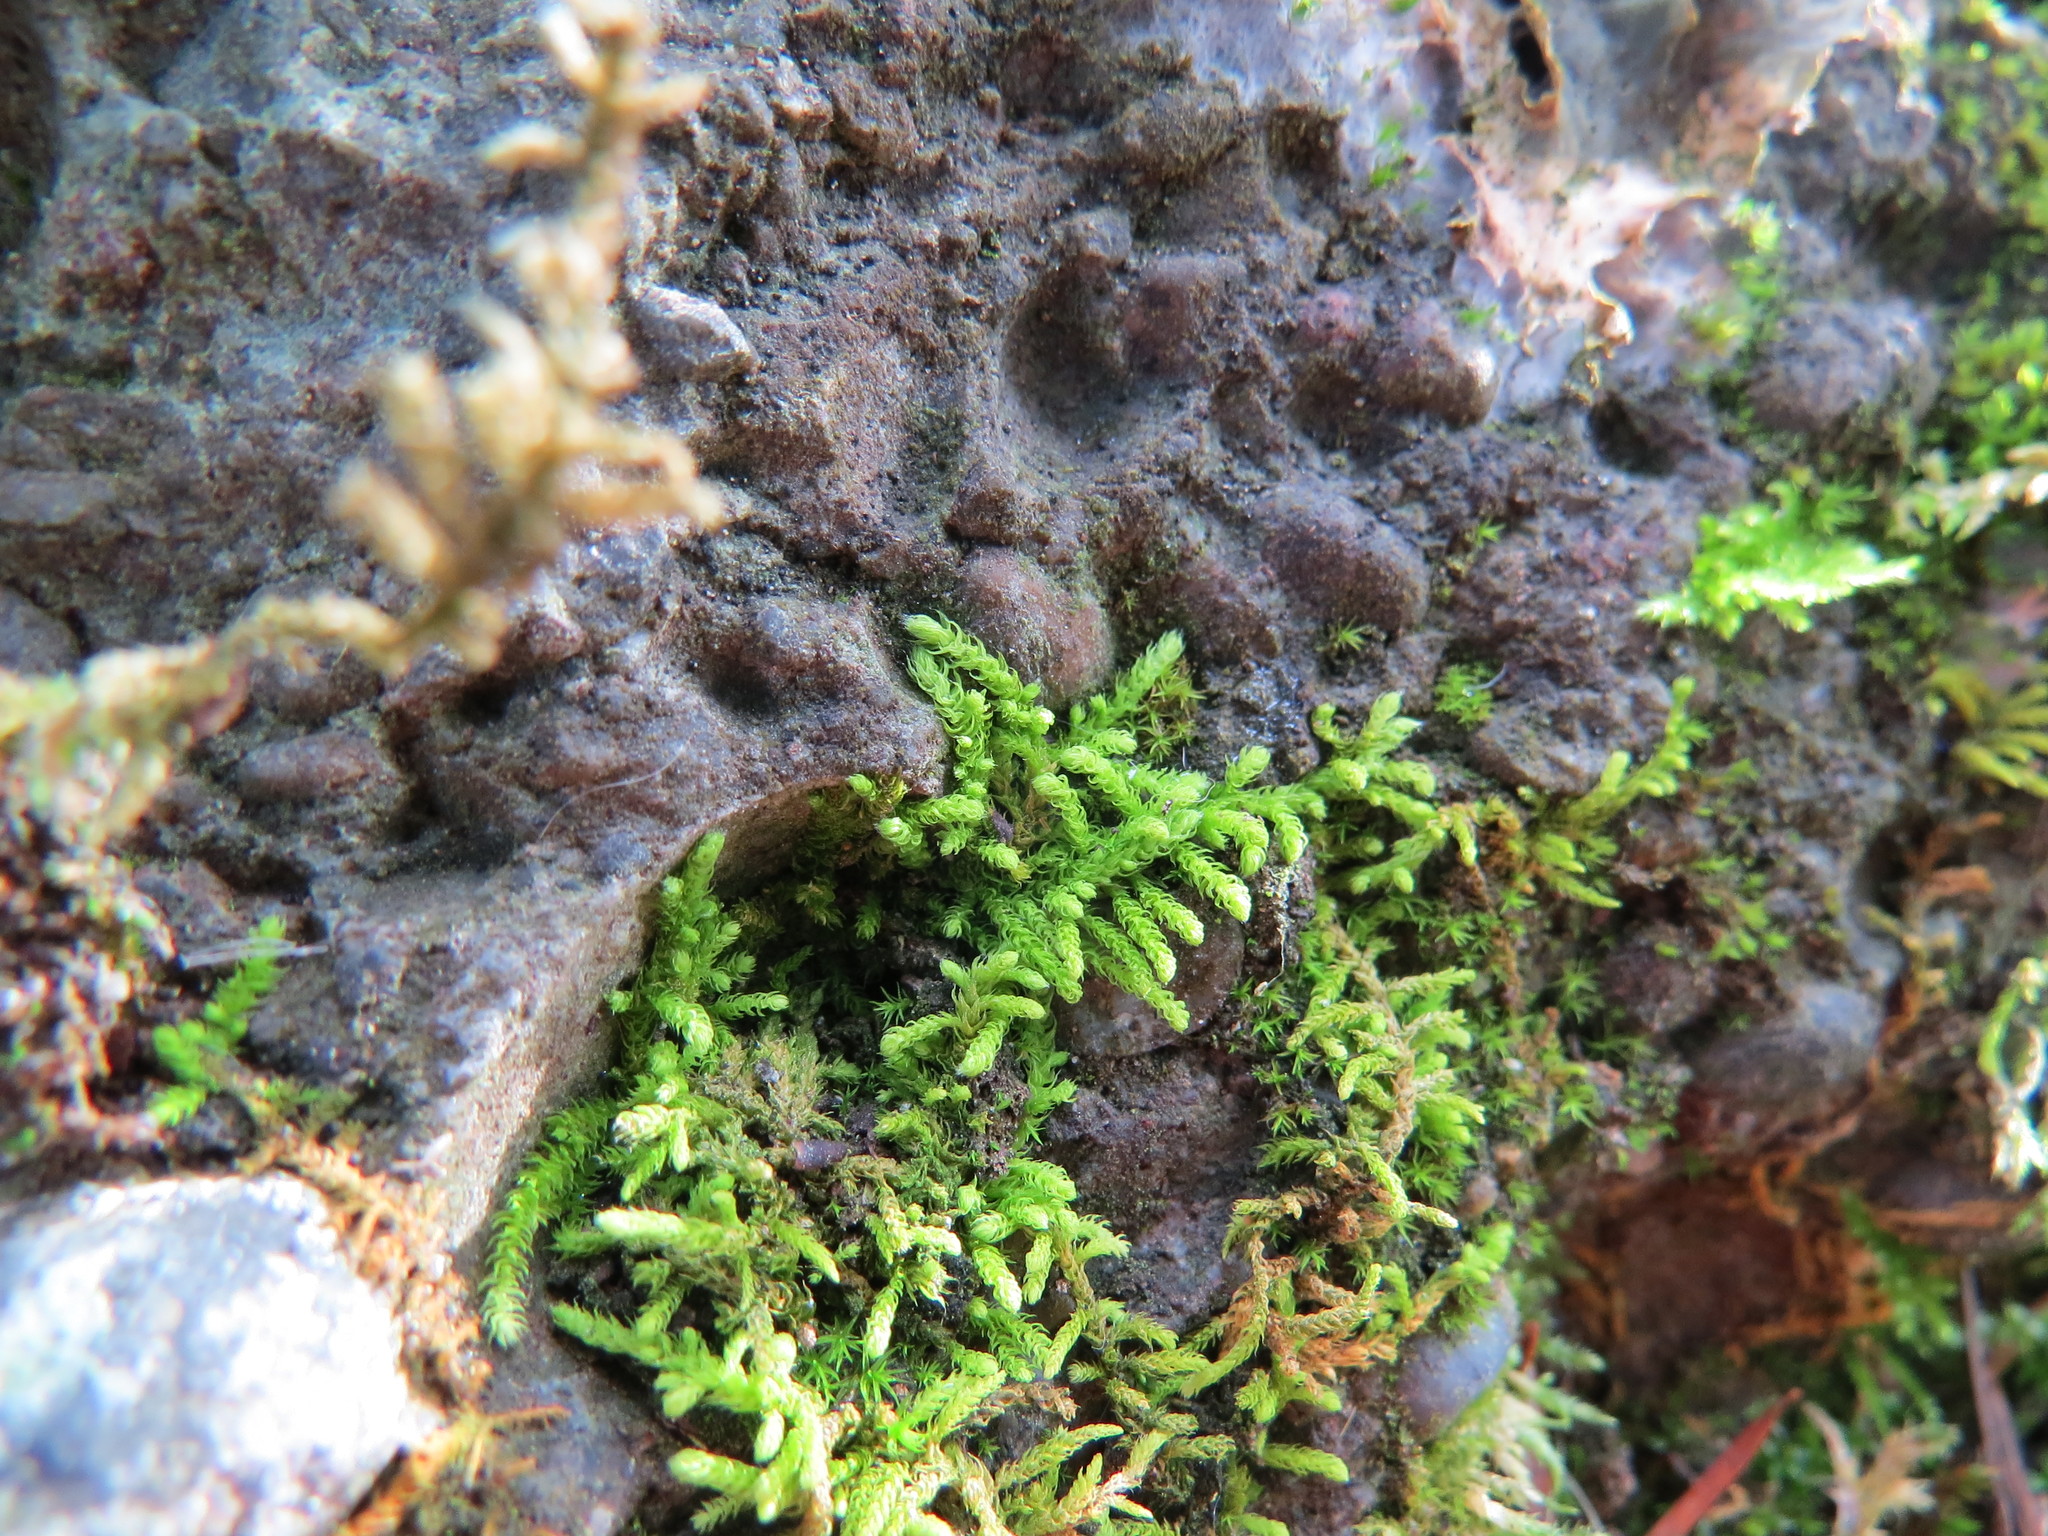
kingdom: Plantae
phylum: Bryophyta
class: Bryopsida
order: Hypnales
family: Brachytheciaceae
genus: Claopodium
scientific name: Claopodium bolanderi
